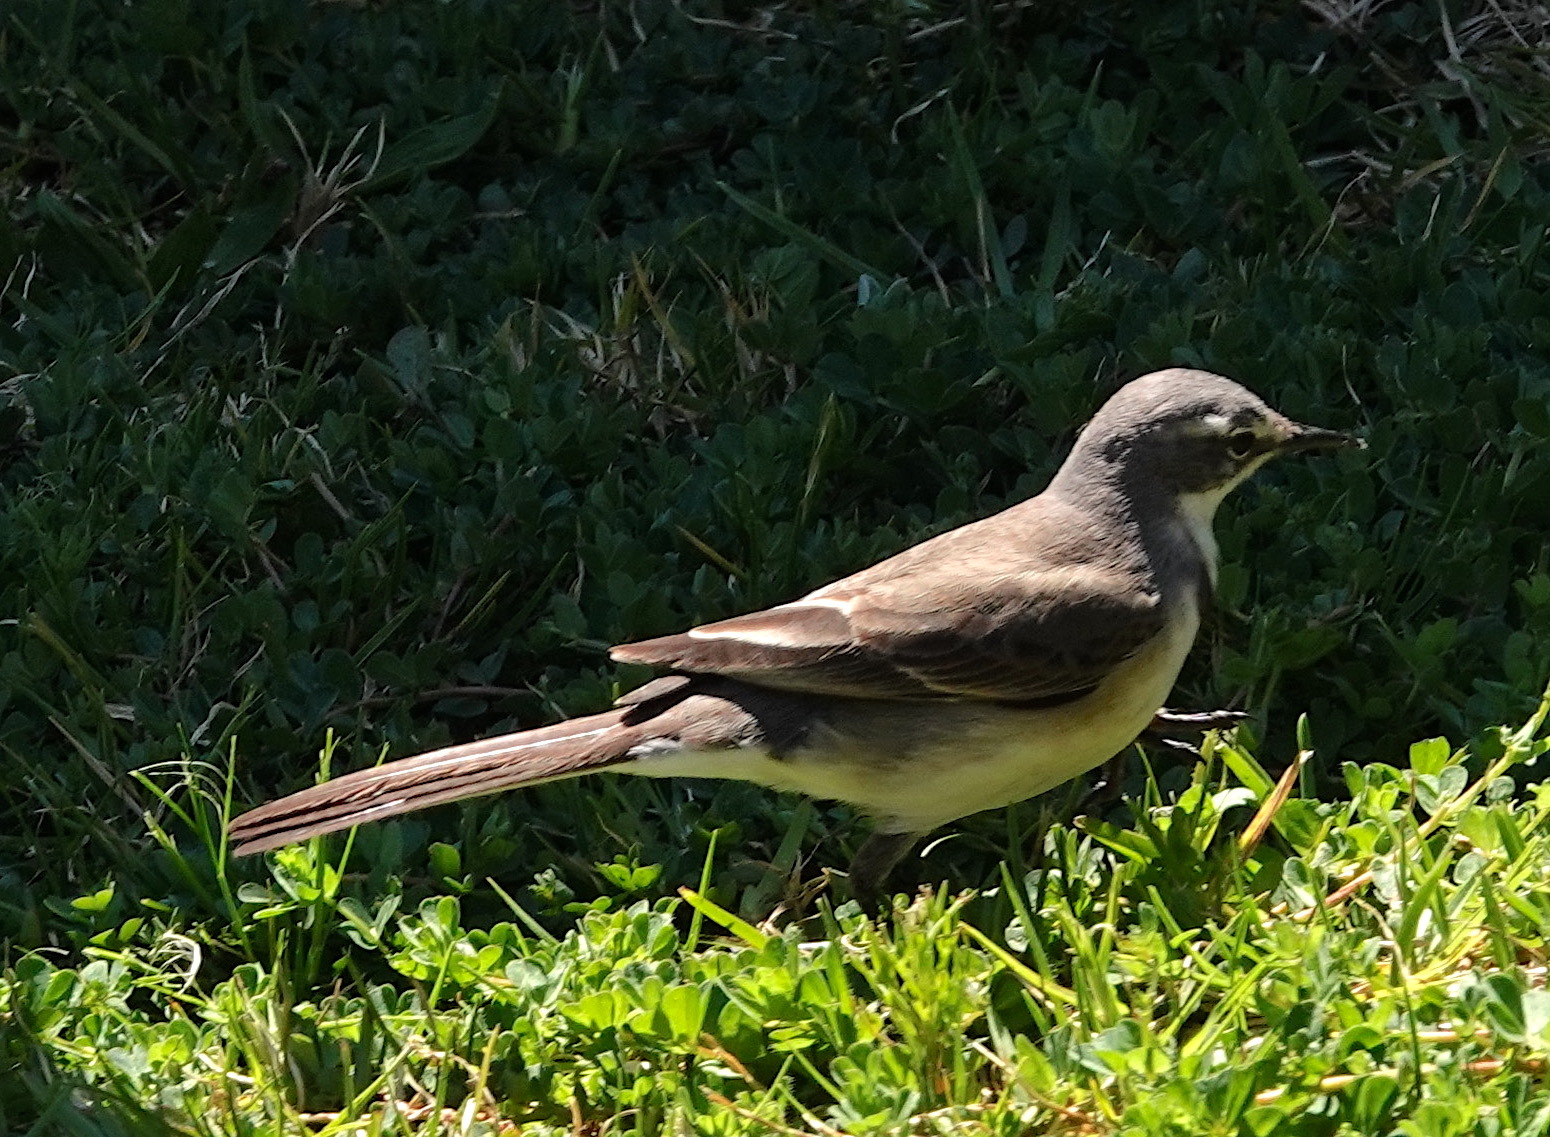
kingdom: Animalia
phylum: Chordata
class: Aves
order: Passeriformes
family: Motacillidae
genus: Motacilla
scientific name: Motacilla capensis
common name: Cape wagtail
